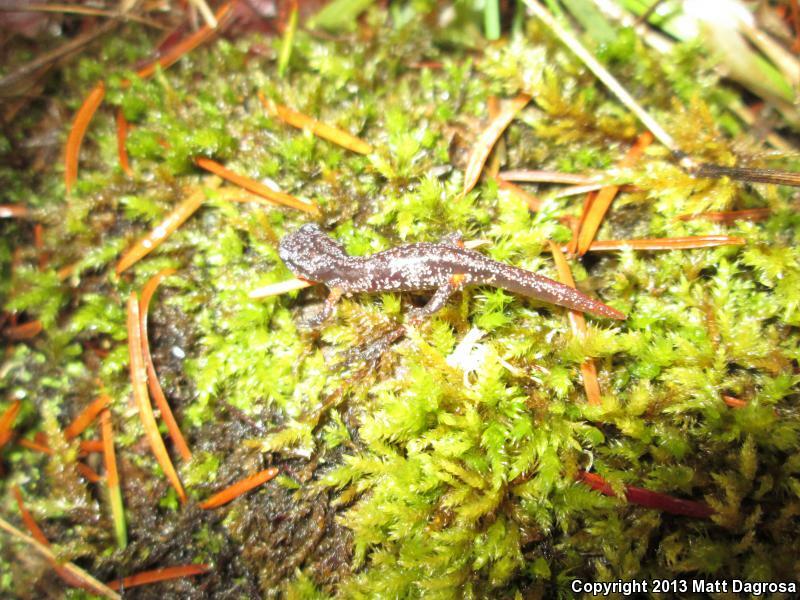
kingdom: Animalia
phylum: Chordata
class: Amphibia
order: Caudata
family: Plethodontidae
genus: Ensatina
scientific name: Ensatina eschscholtzii
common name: Ensatina
